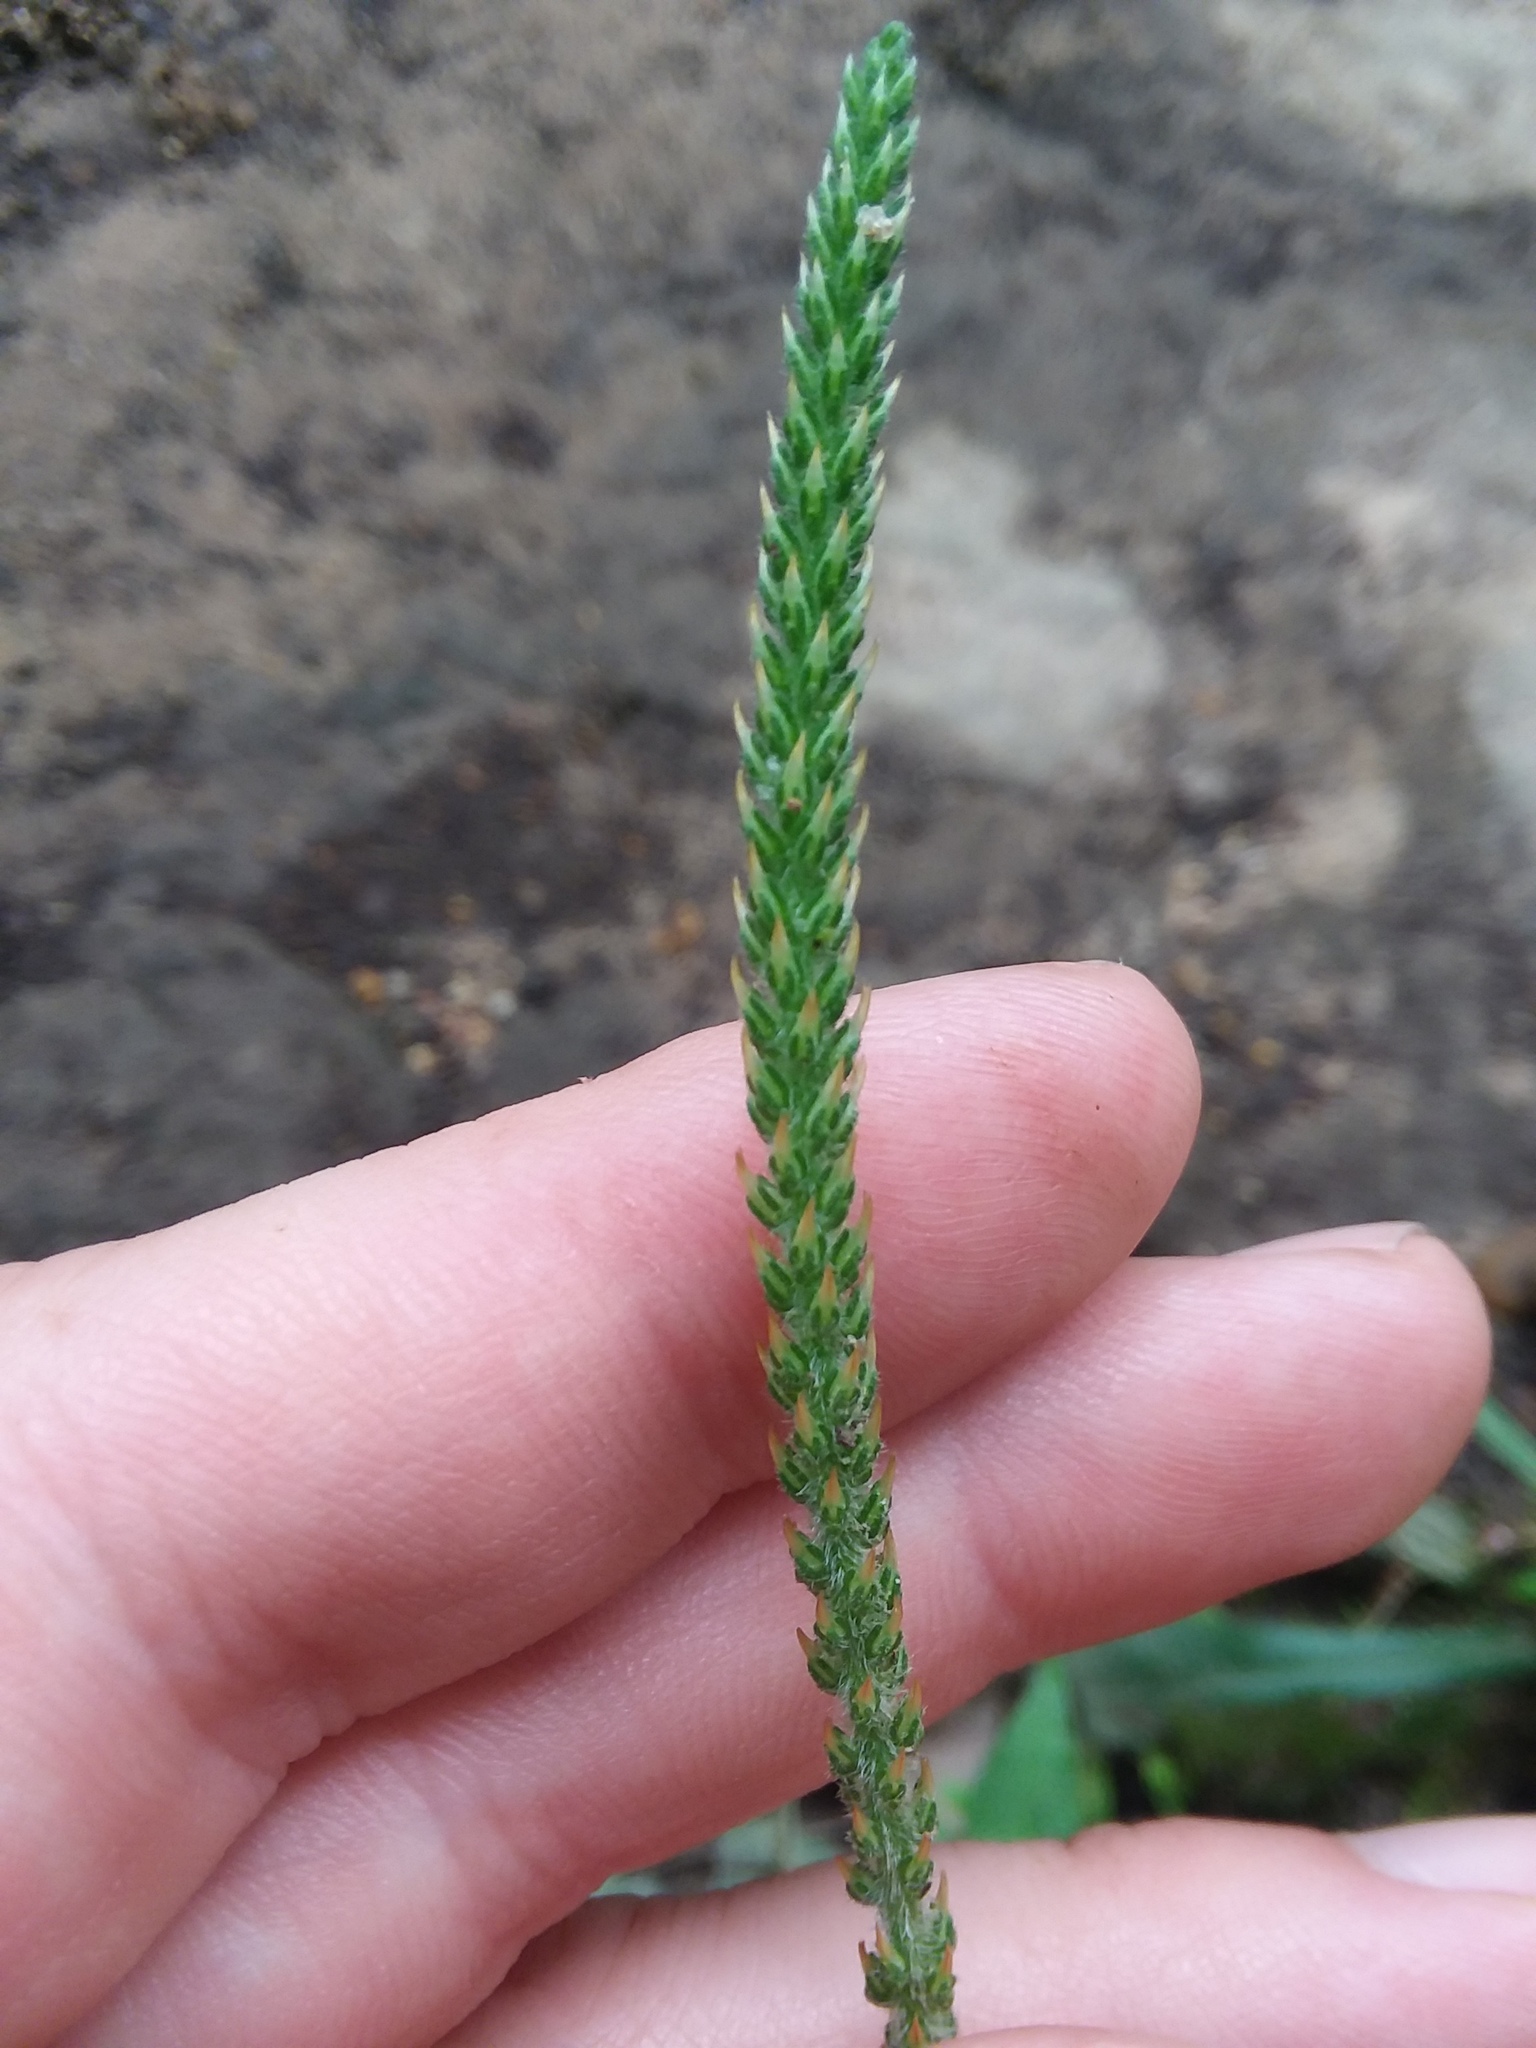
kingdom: Plantae
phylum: Tracheophyta
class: Magnoliopsida
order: Lamiales
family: Plantaginaceae
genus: Plantago
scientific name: Plantago virginica
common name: Hoary plantain
